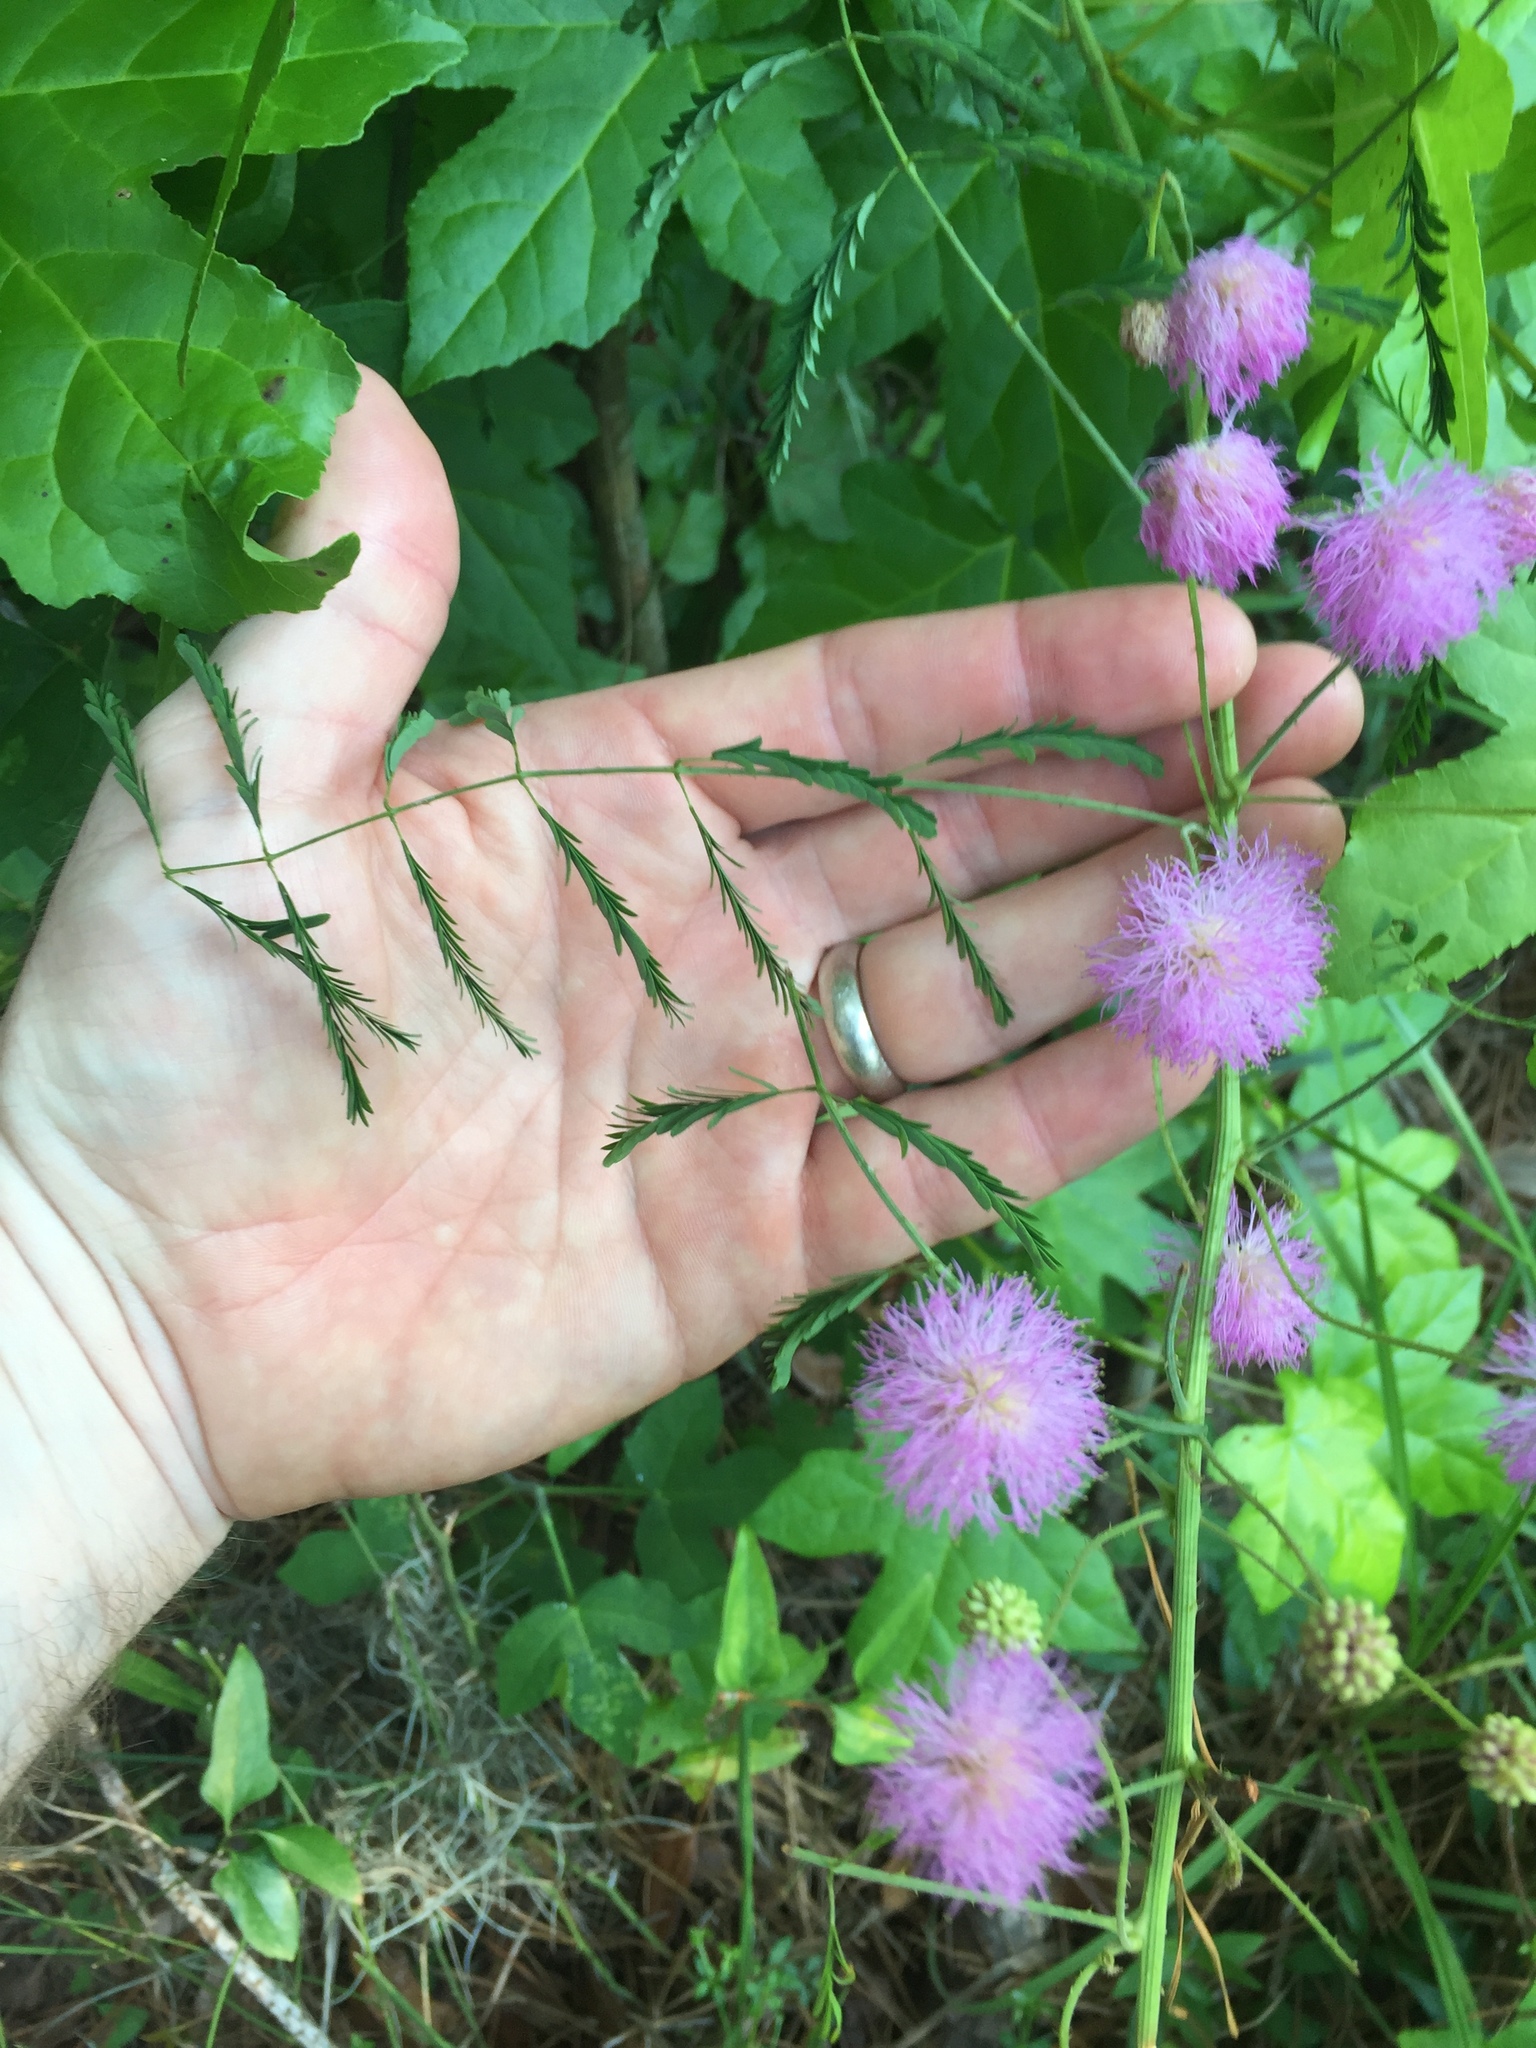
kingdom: Plantae
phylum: Tracheophyta
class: Magnoliopsida
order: Fabales
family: Fabaceae
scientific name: Fabaceae
